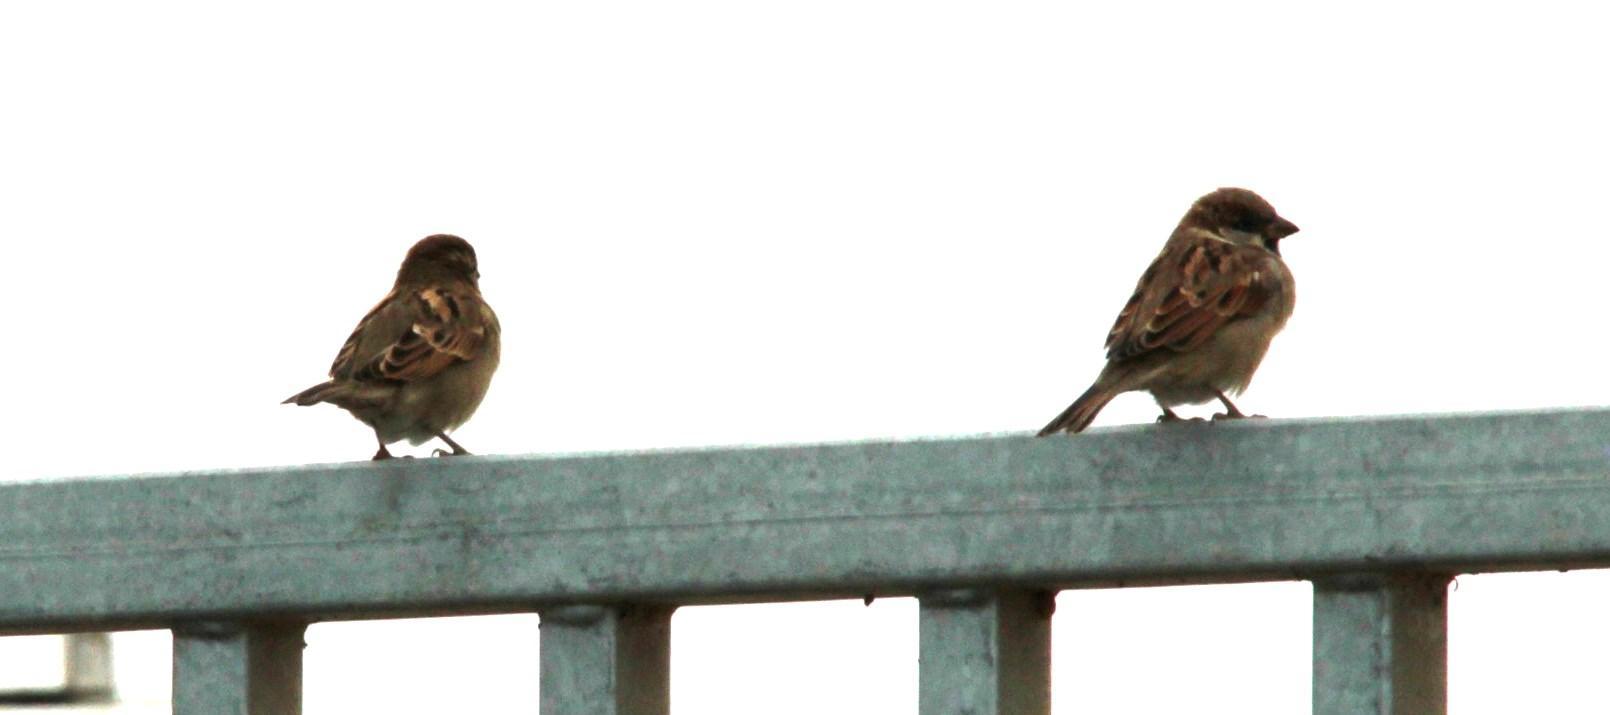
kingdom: Animalia
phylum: Chordata
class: Aves
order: Passeriformes
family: Passeridae
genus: Passer
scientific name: Passer domesticus
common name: House sparrow
